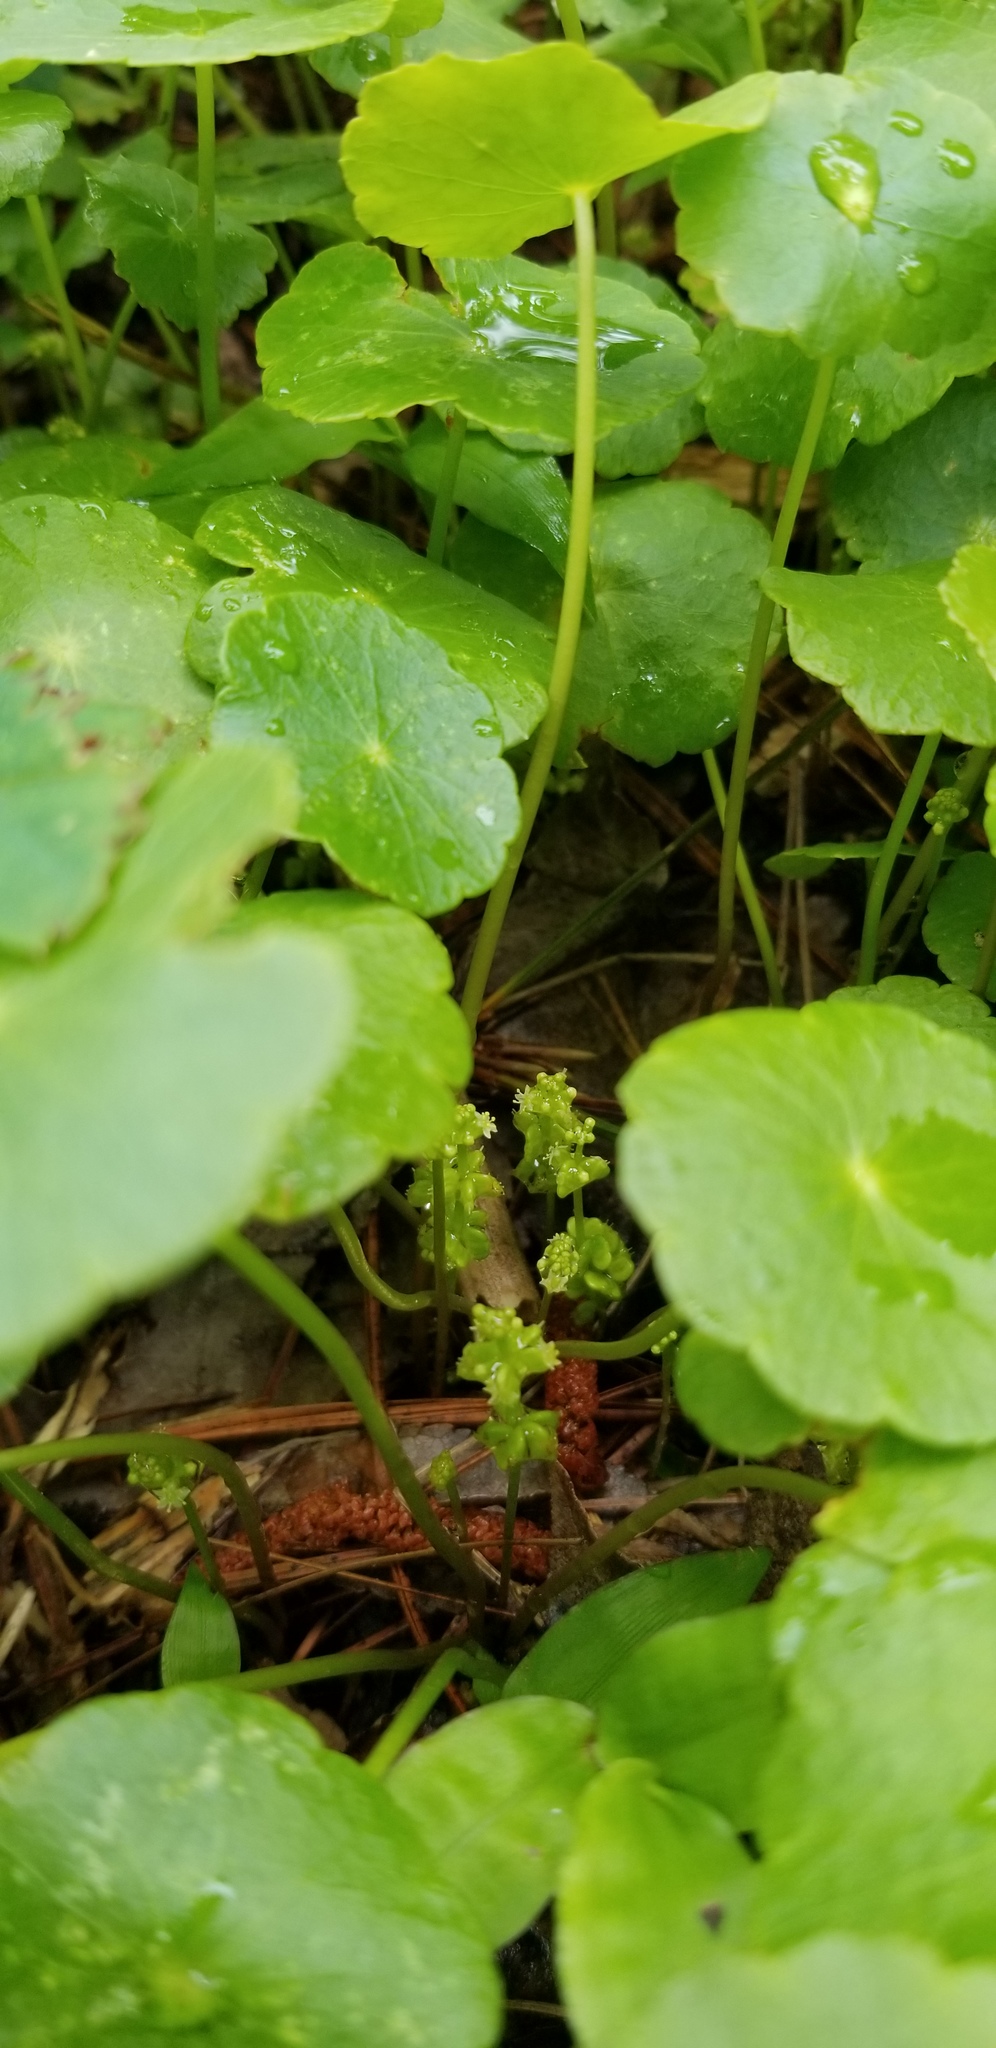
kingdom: Plantae
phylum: Tracheophyta
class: Magnoliopsida
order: Apiales
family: Araliaceae
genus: Hydrocotyle
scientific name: Hydrocotyle verticillata
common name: Whorled marshpennywort
